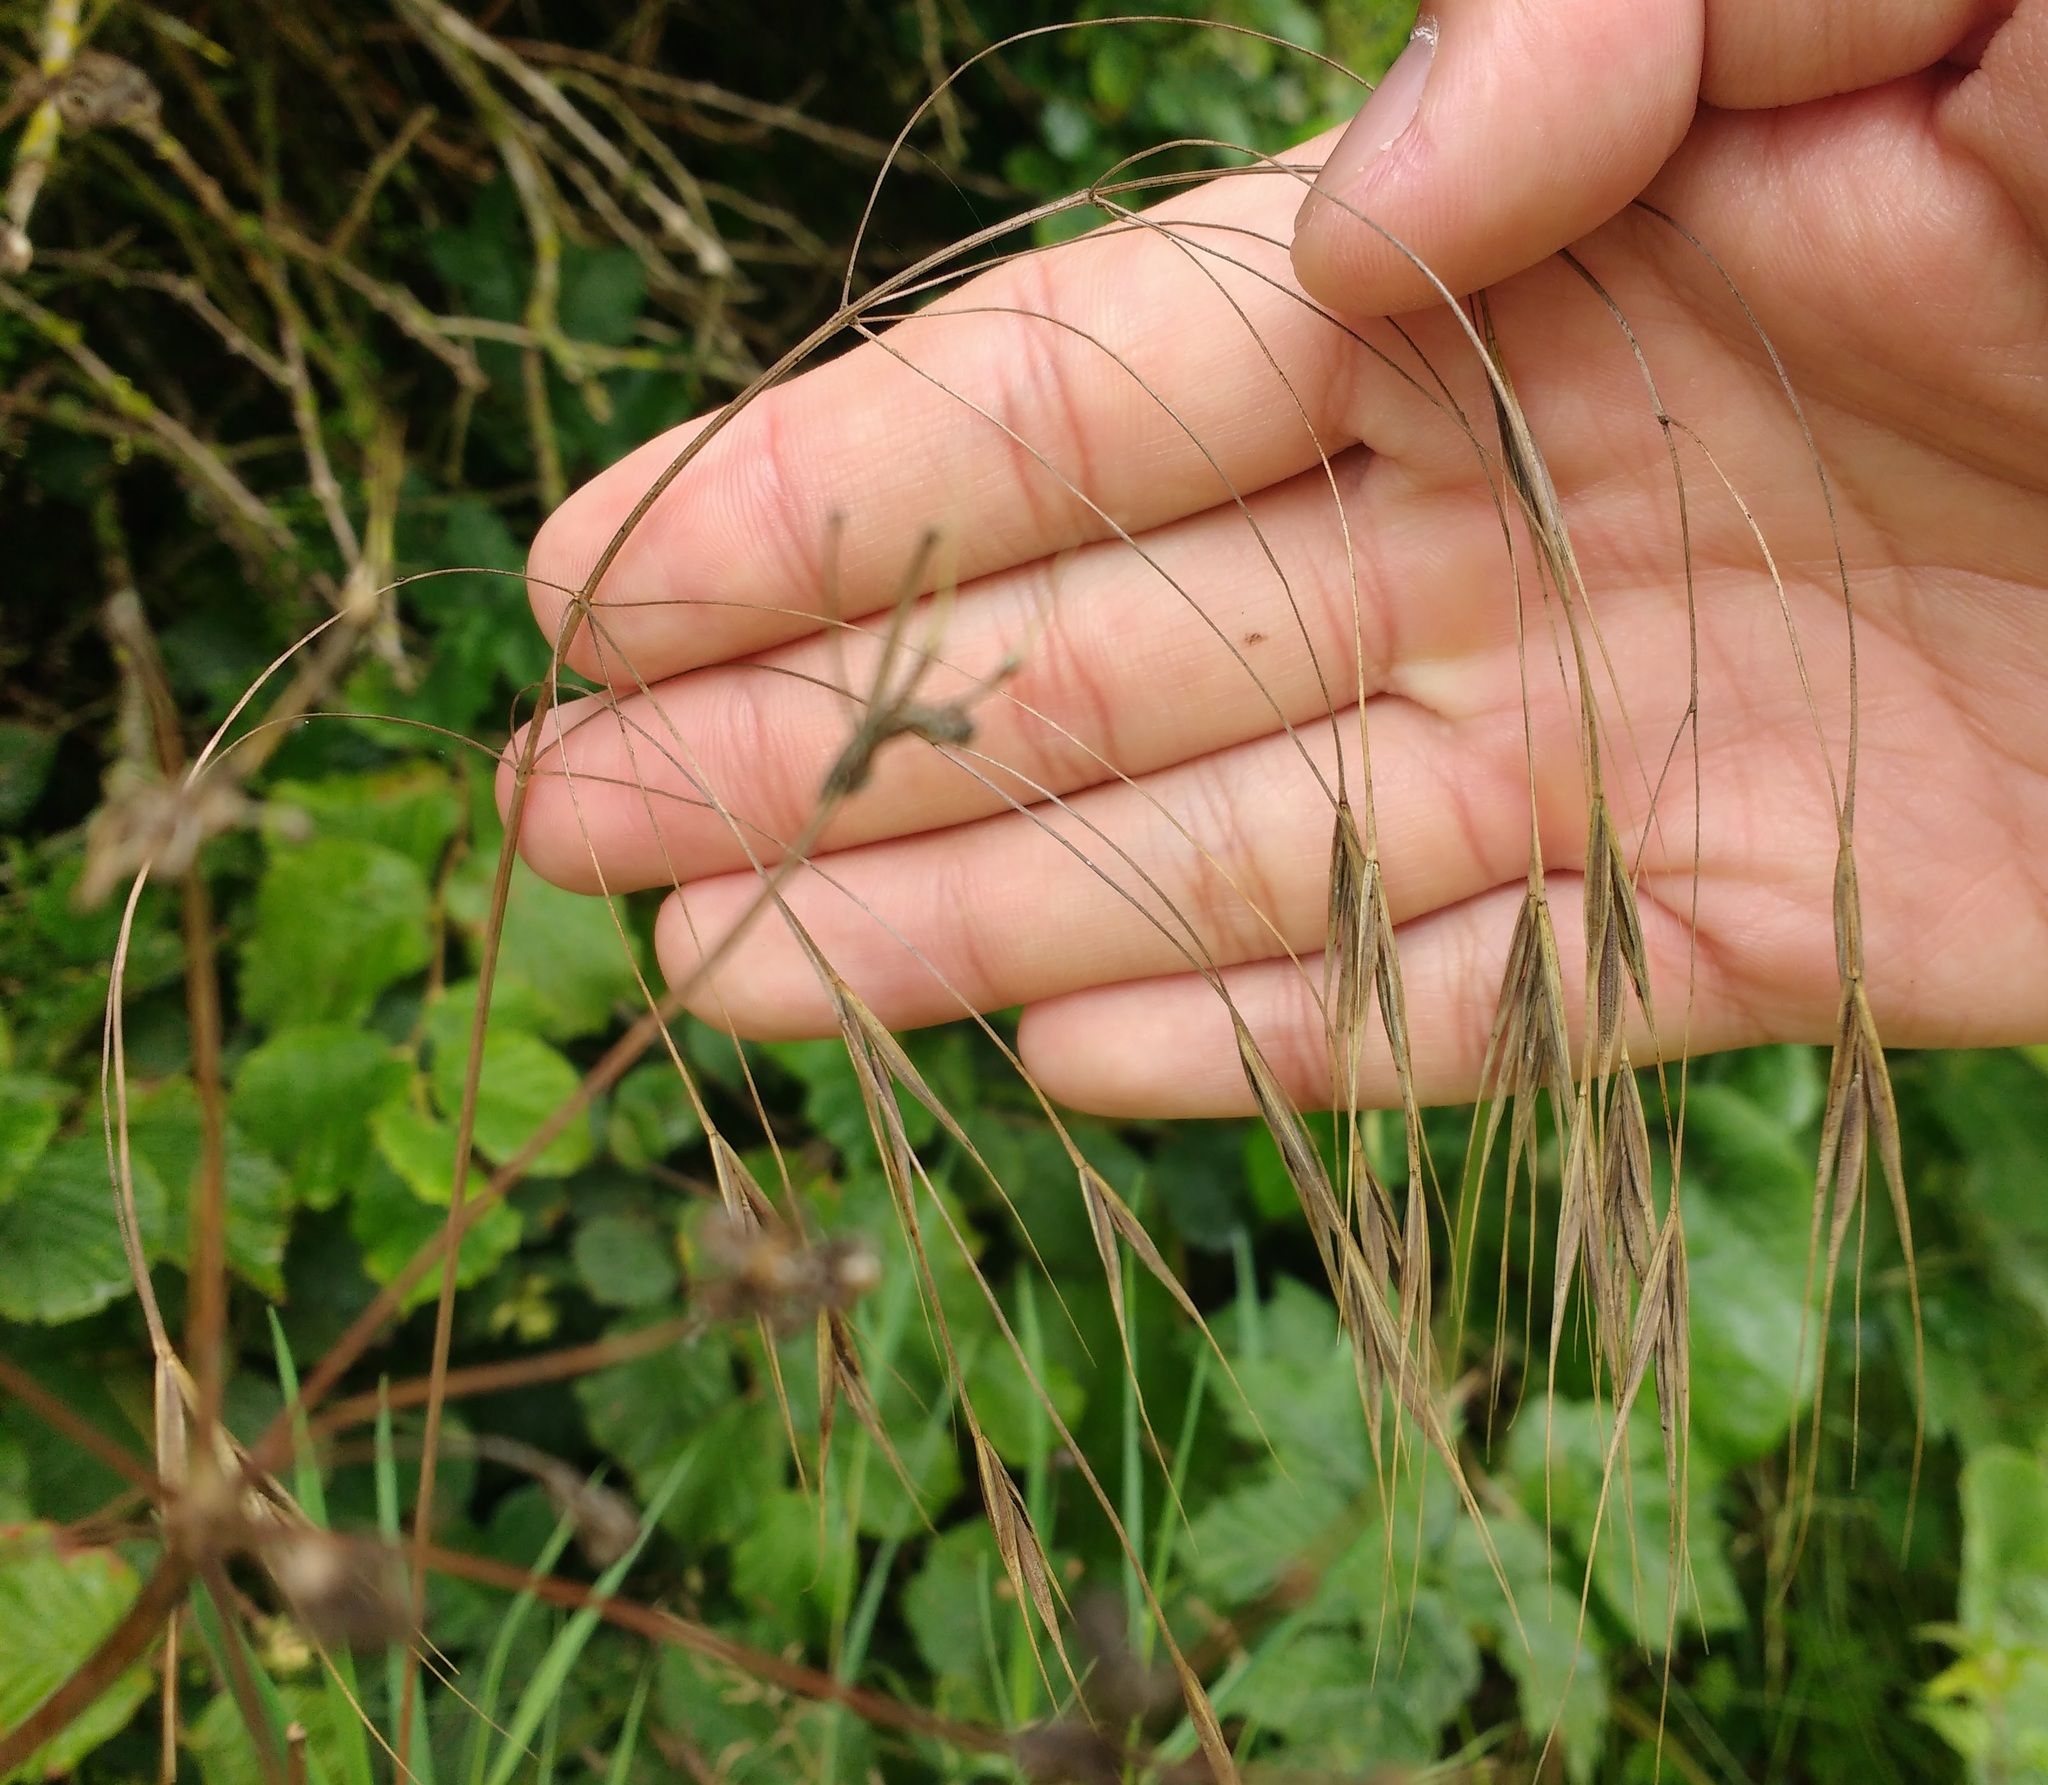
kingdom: Plantae
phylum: Tracheophyta
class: Liliopsida
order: Poales
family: Poaceae
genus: Bromus
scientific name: Bromus sterilis
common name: Poverty brome
